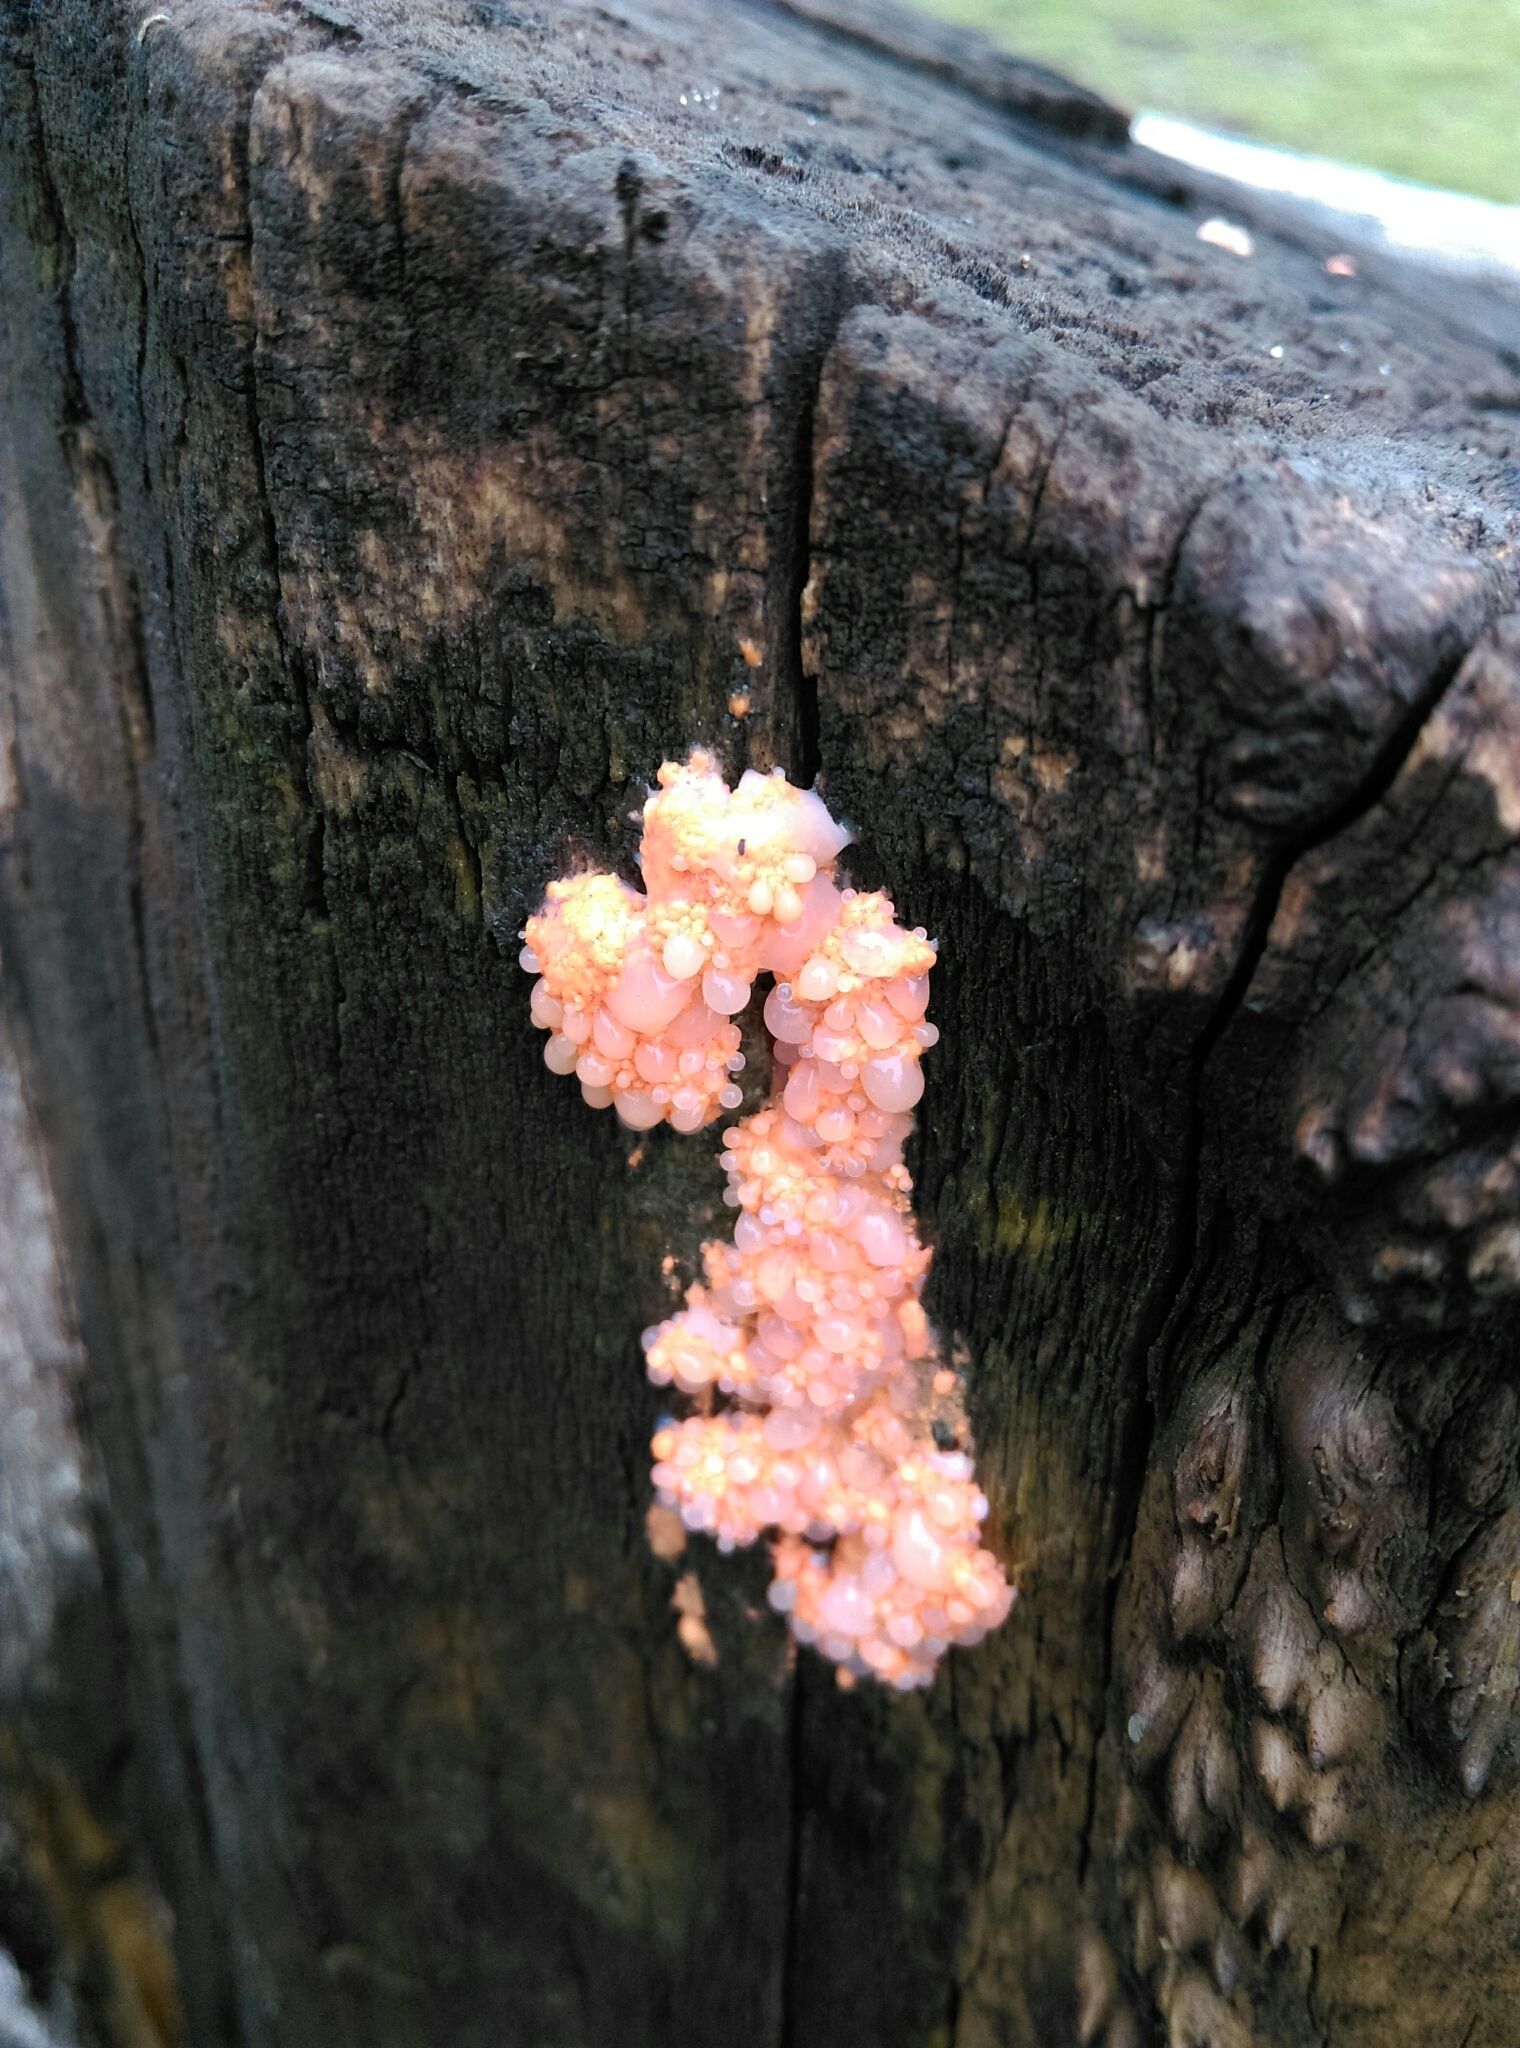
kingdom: Protozoa
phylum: Mycetozoa
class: Myxomycetes
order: Cribrariales
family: Tubiferaceae
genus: Lycogala
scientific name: Lycogala epidendrum
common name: Wolf's milk
